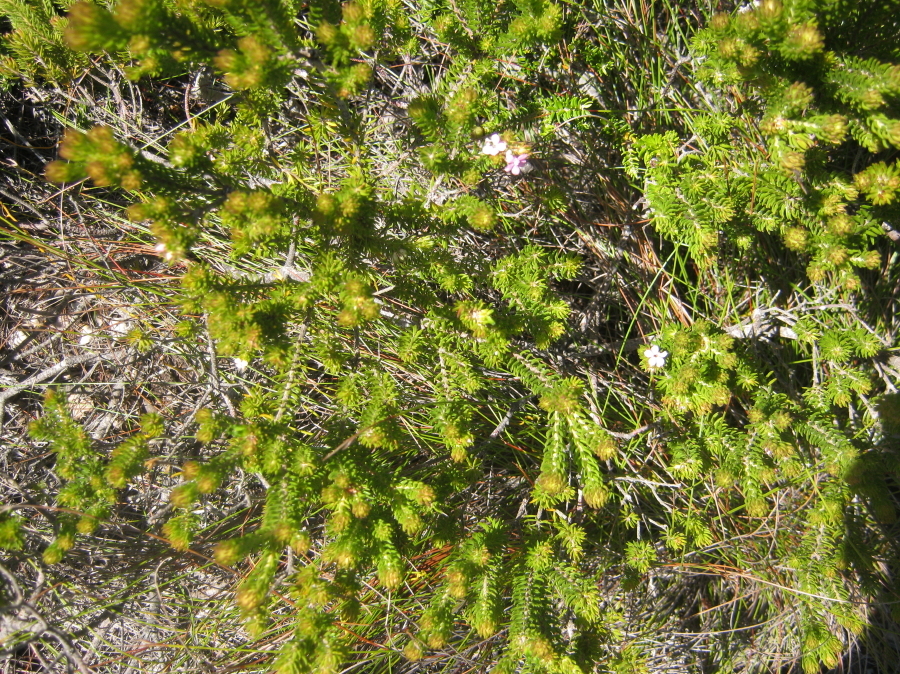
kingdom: Plantae
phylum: Tracheophyta
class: Magnoliopsida
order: Sapindales
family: Rutaceae
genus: Acmadenia
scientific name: Acmadenia alternifolia
